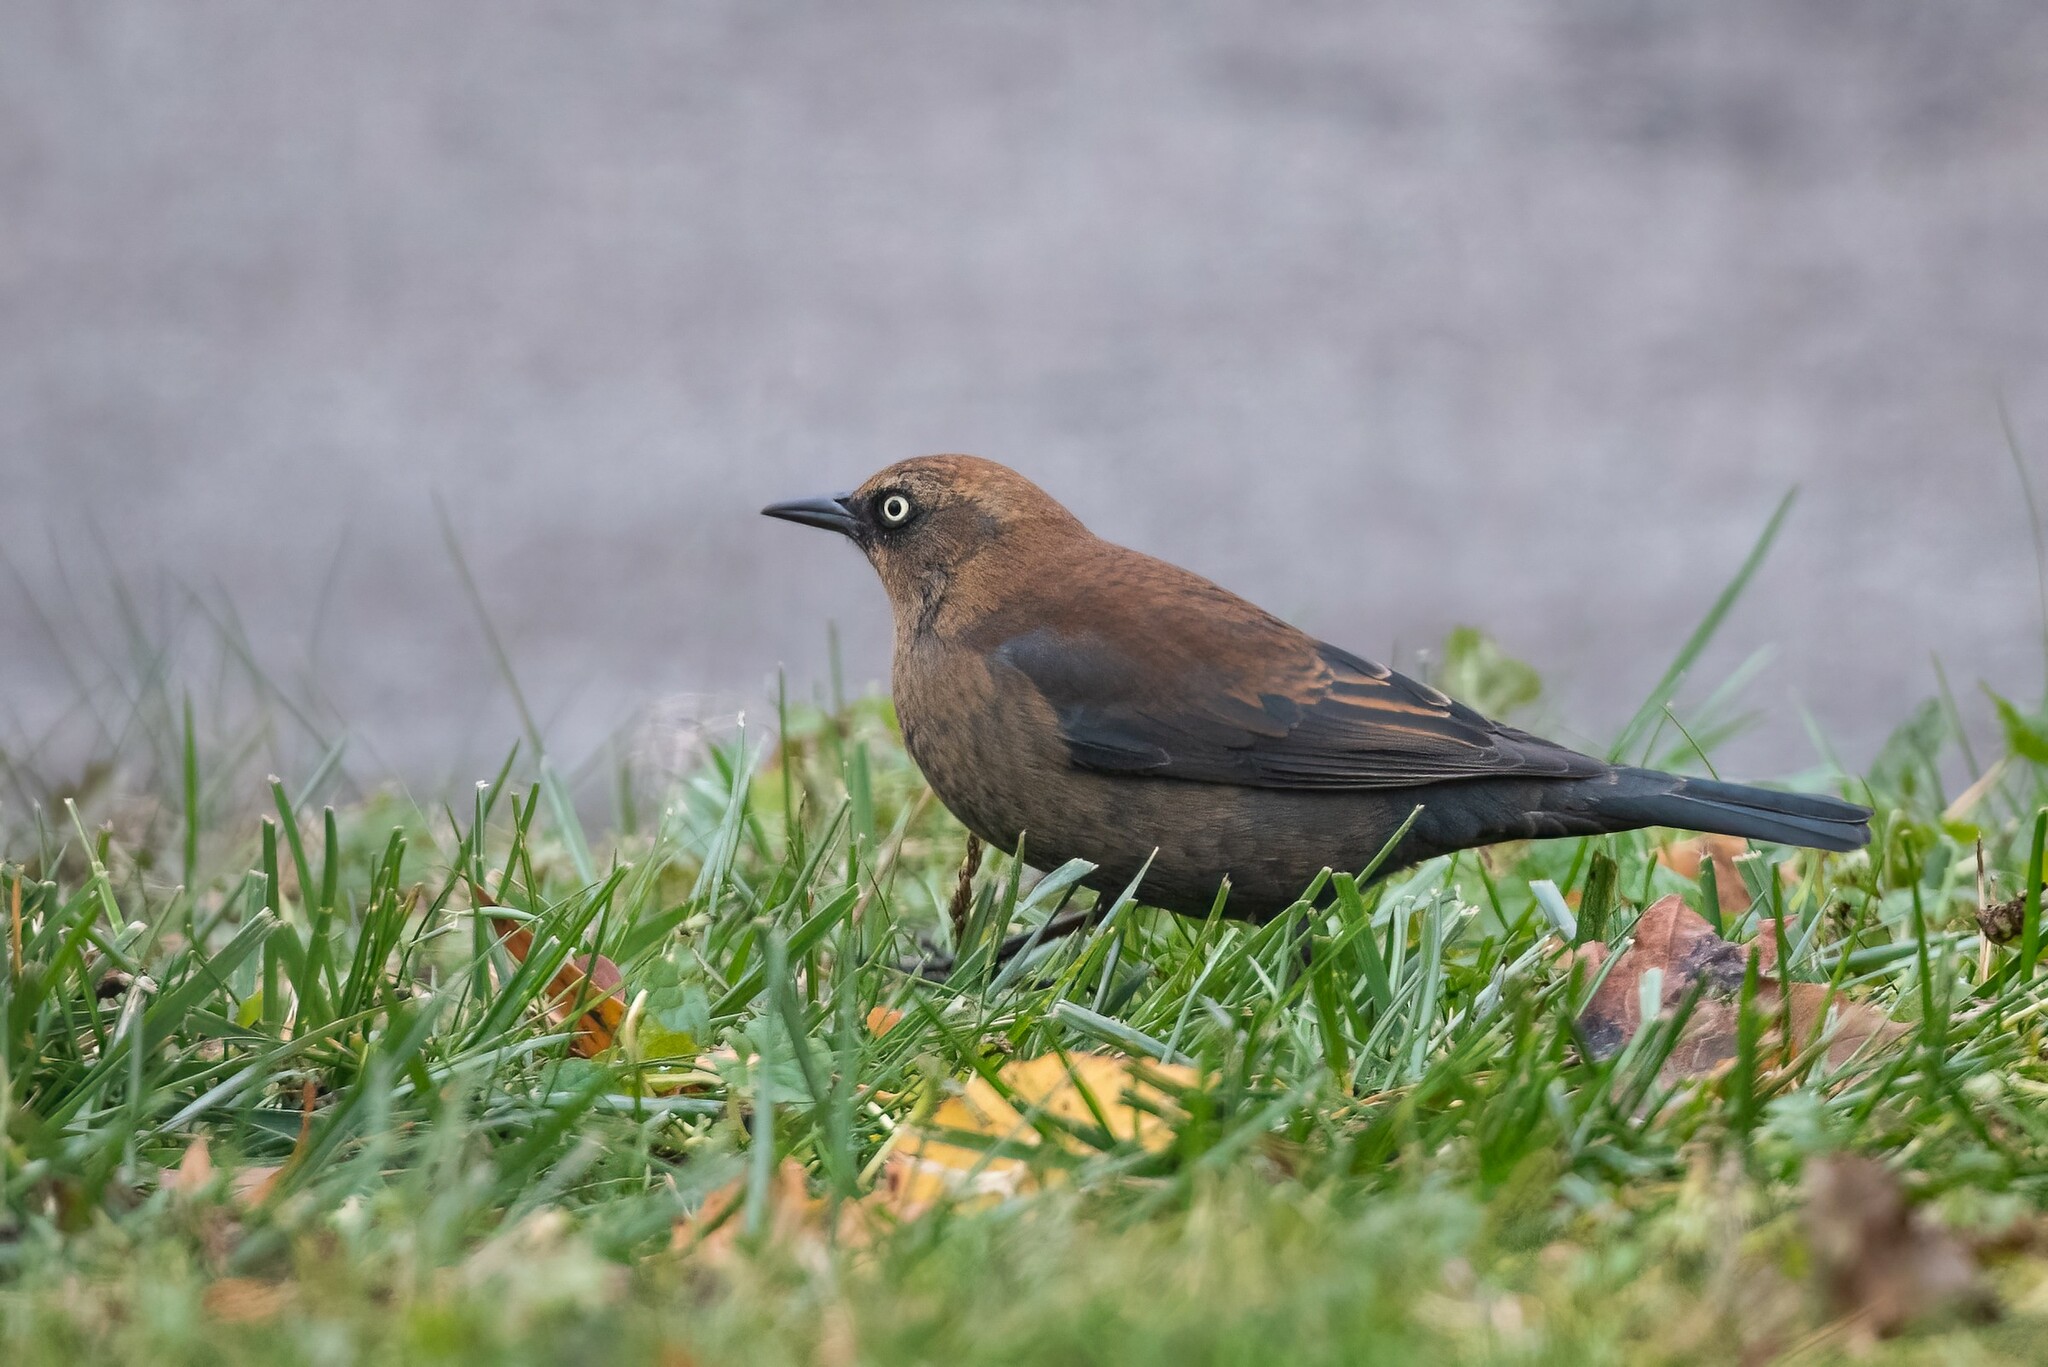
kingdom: Animalia
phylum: Chordata
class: Aves
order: Passeriformes
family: Icteridae
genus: Euphagus
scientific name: Euphagus carolinus
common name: Rusty blackbird
